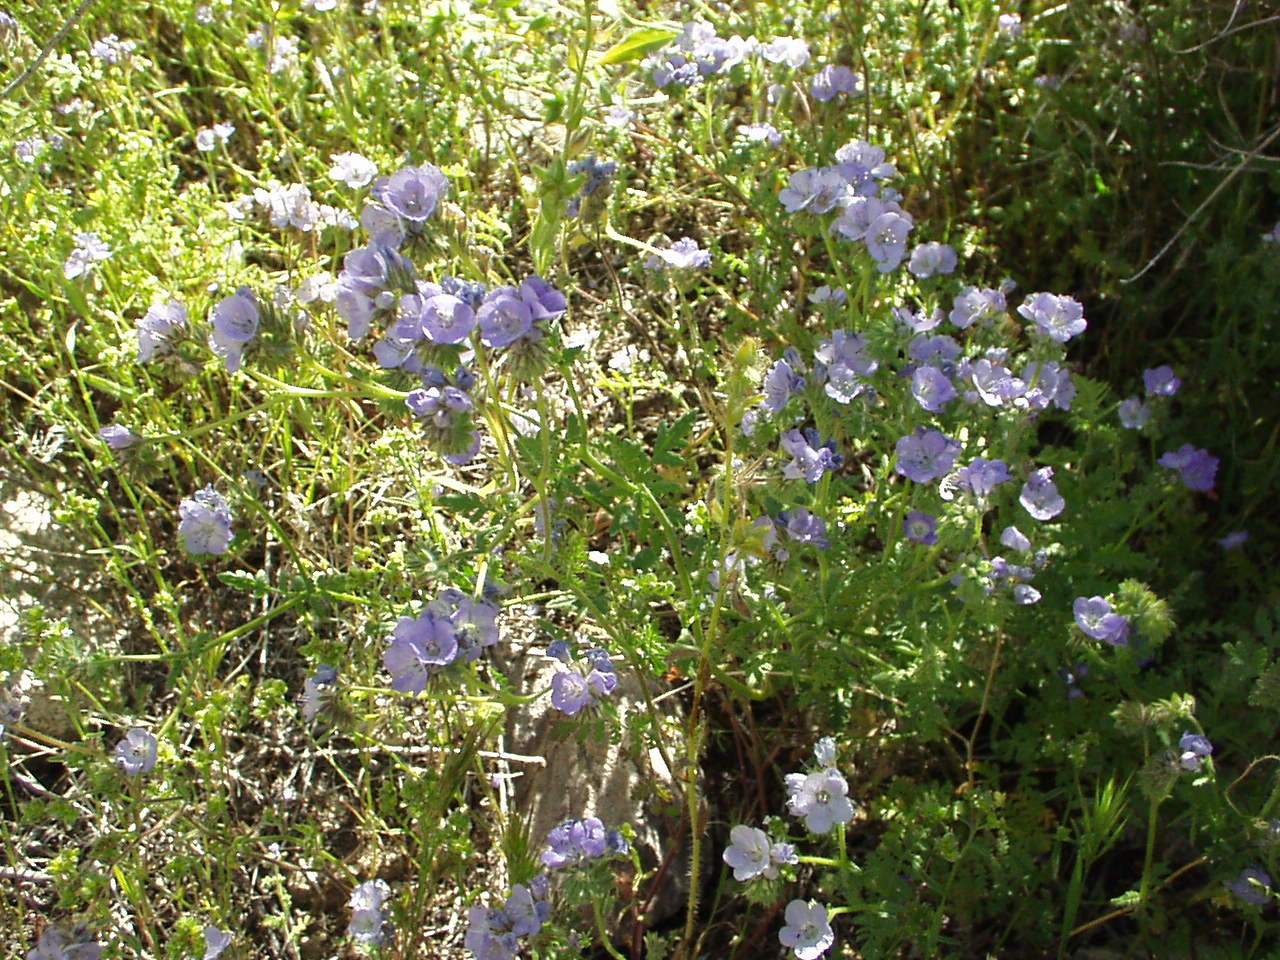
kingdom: Plantae
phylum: Tracheophyta
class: Magnoliopsida
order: Boraginales
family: Hydrophyllaceae
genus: Phacelia
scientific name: Phacelia distans
